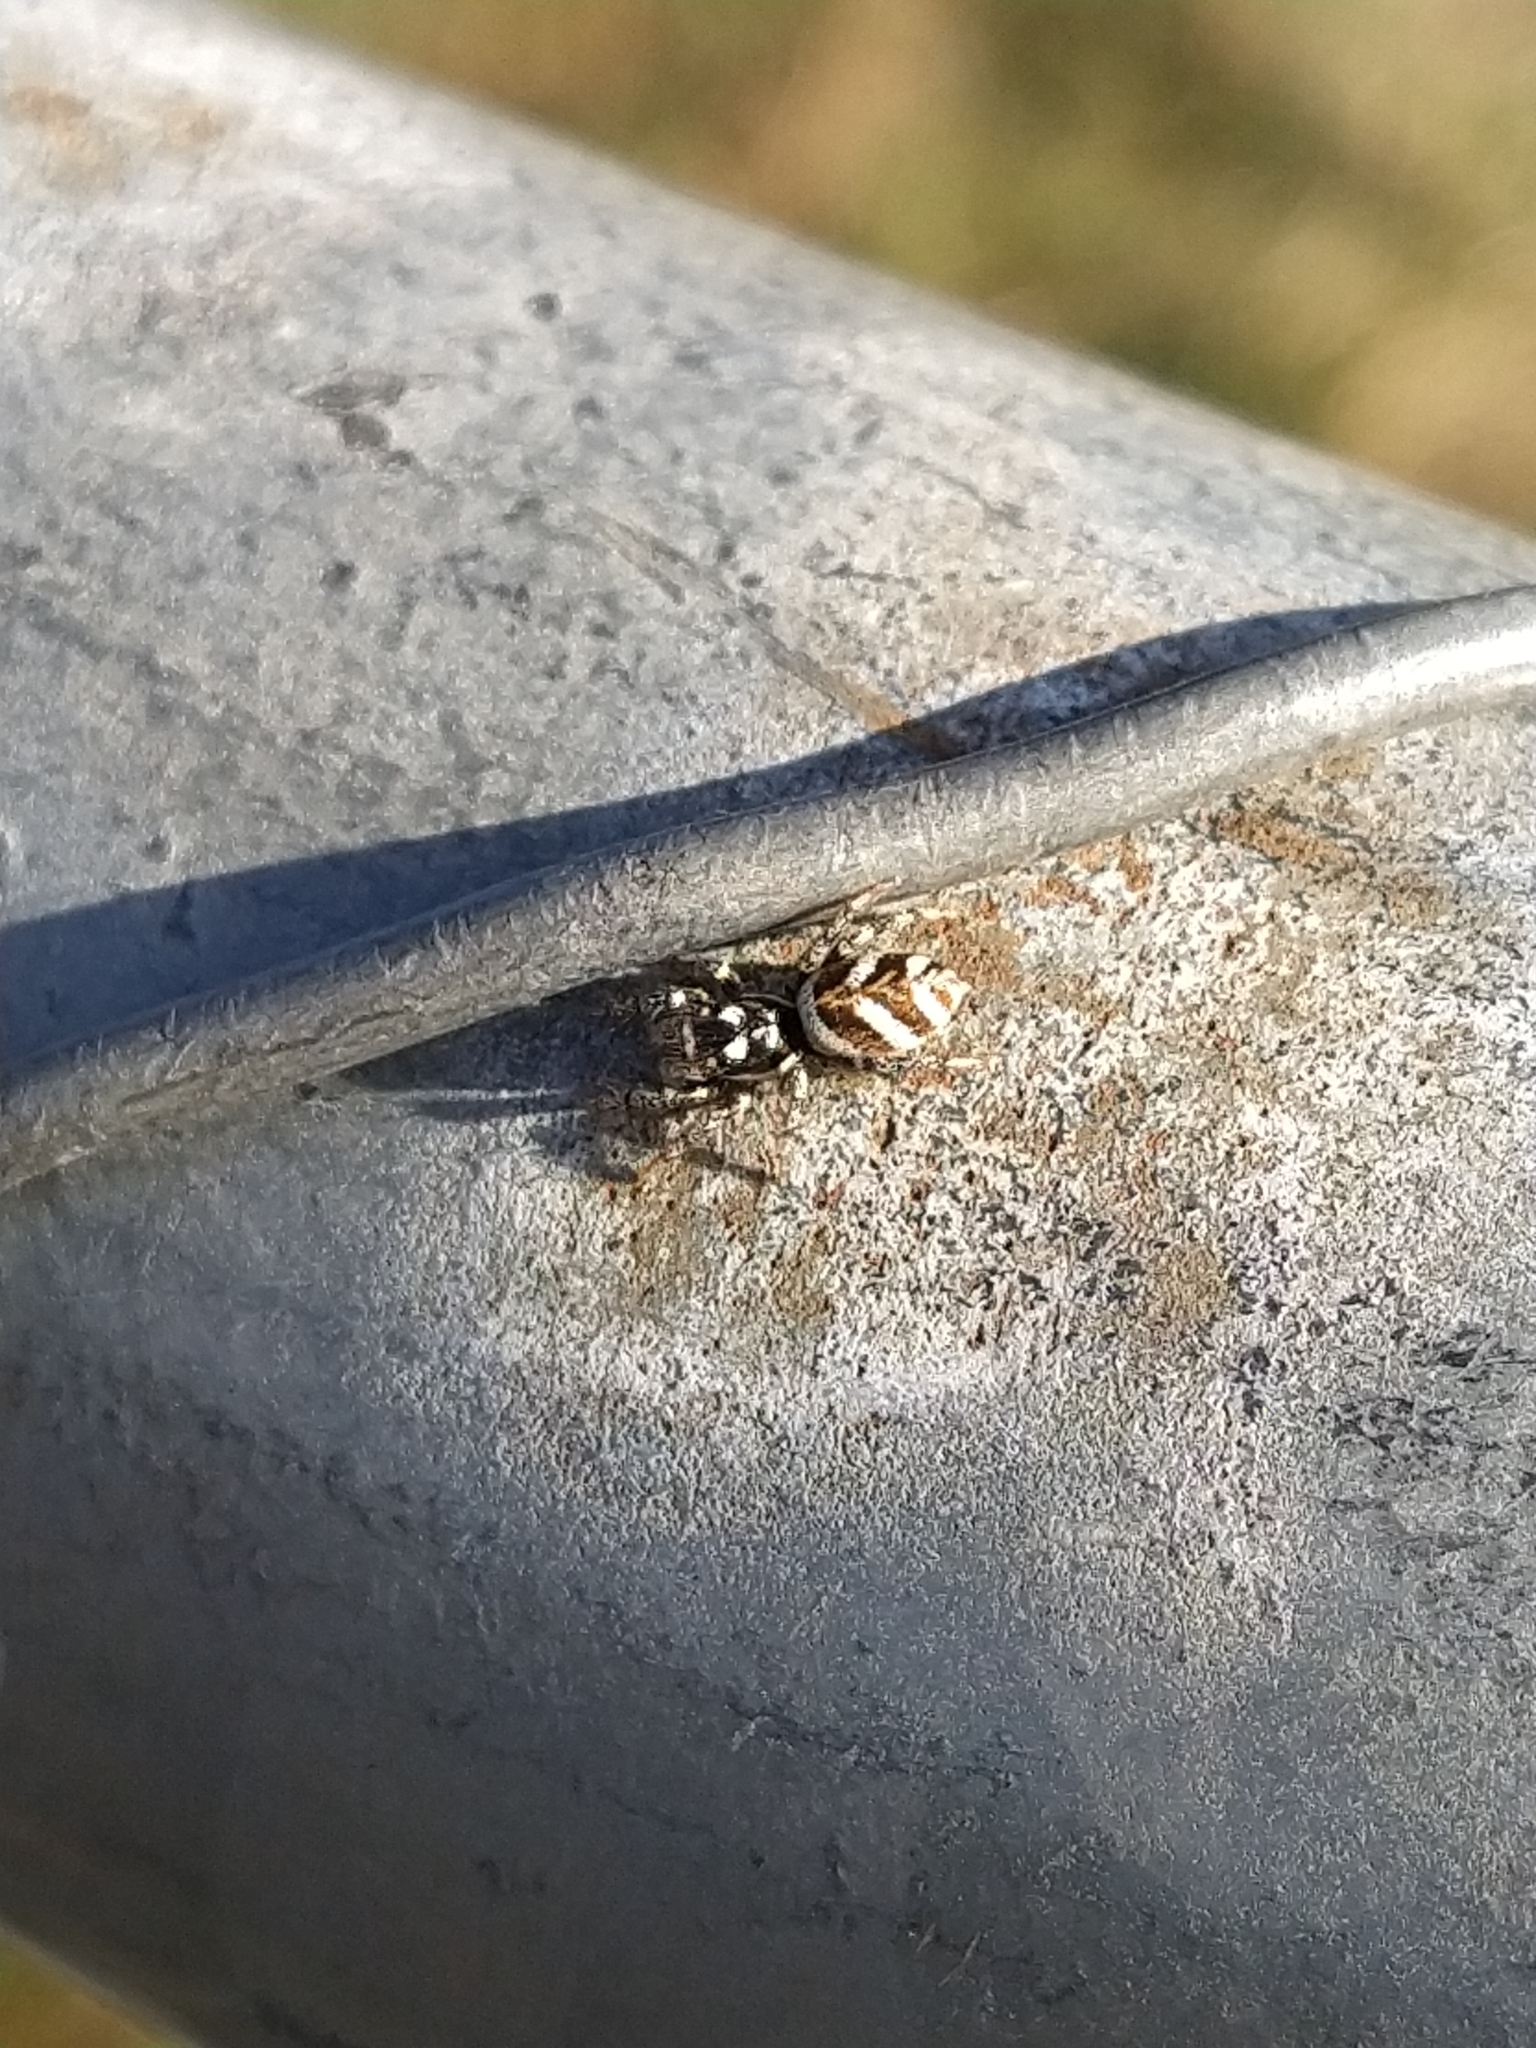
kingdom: Animalia
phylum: Arthropoda
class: Arachnida
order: Araneae
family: Salticidae
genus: Salticus
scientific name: Salticus scenicus
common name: Zebra jumper
